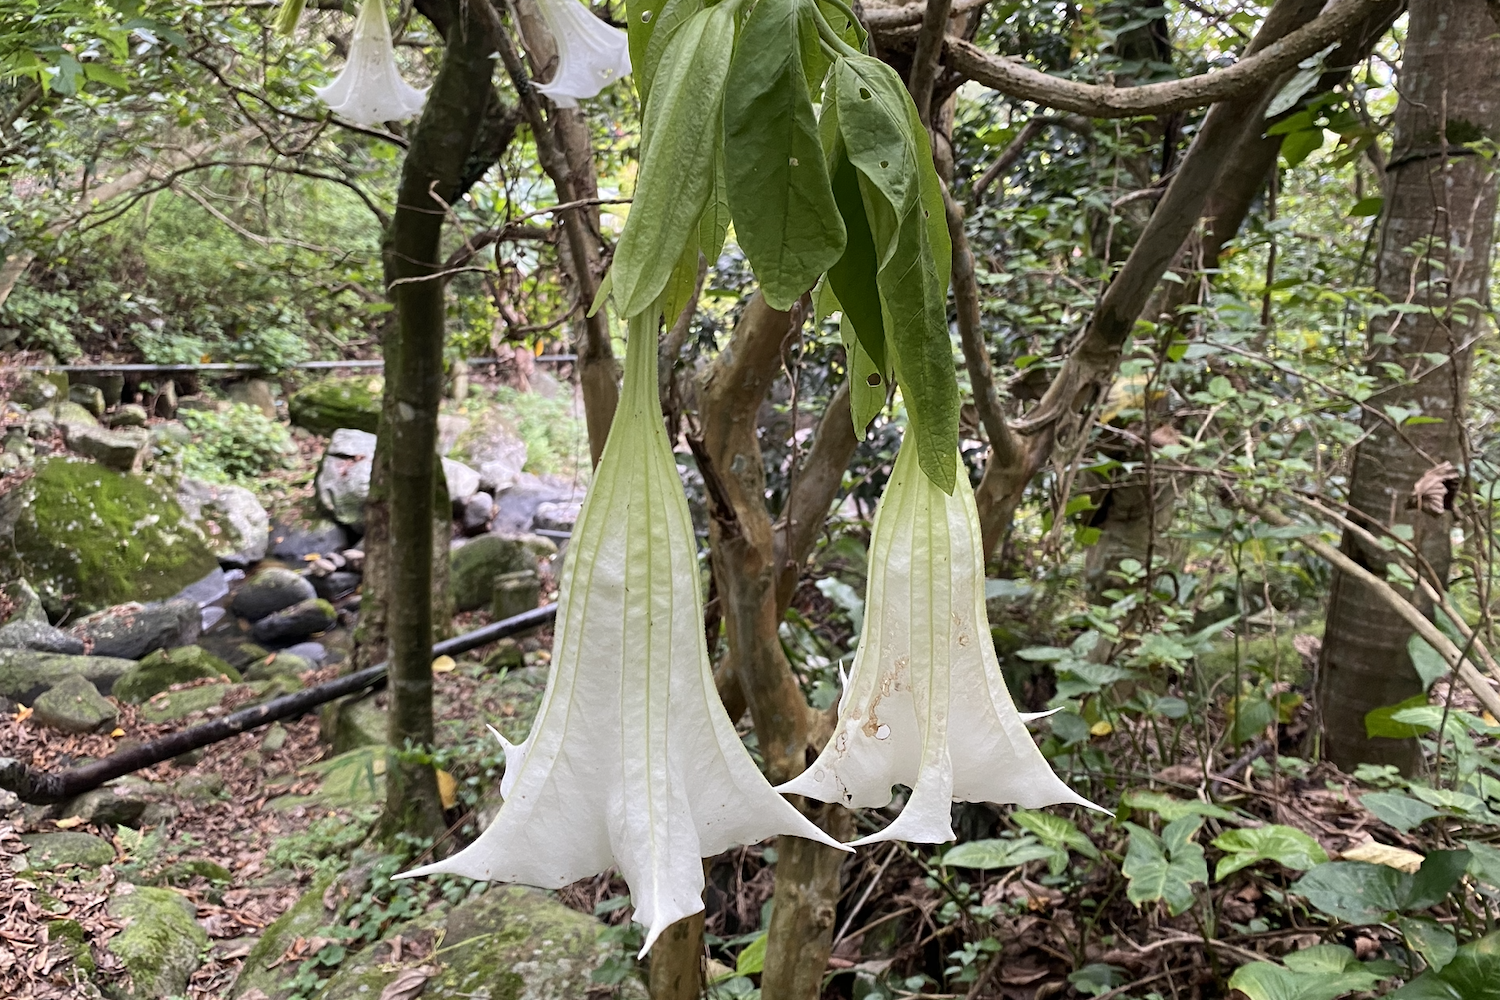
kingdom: Plantae
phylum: Tracheophyta
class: Magnoliopsida
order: Solanales
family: Solanaceae
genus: Brugmansia
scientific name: Brugmansia suaveolens
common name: Angel's tears
